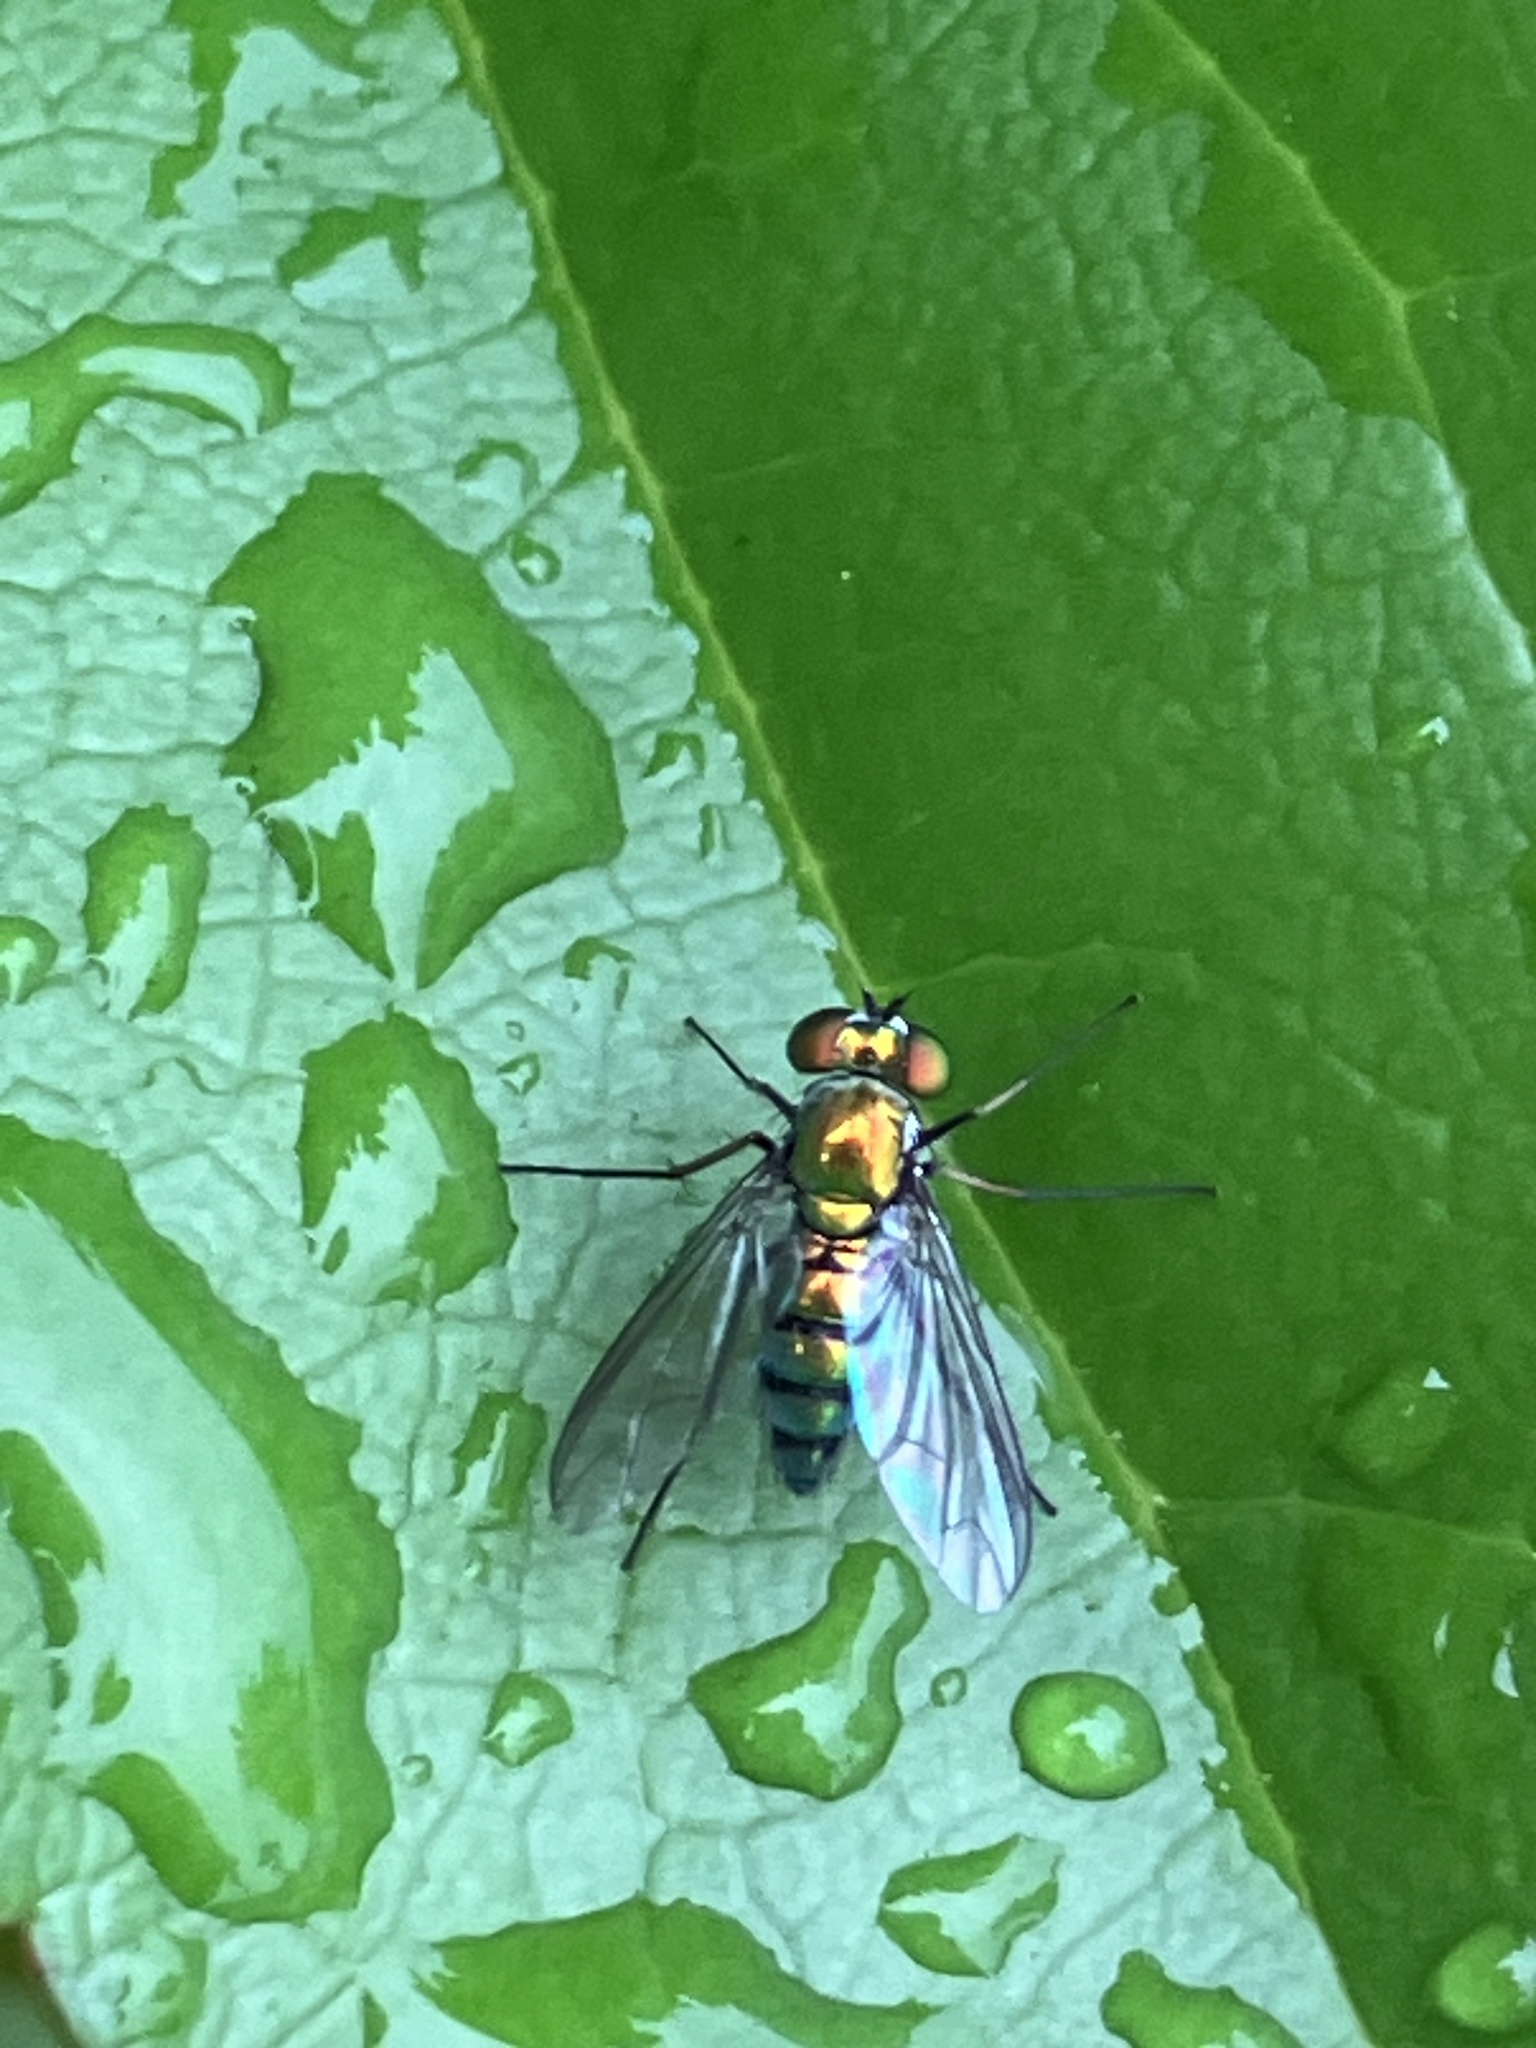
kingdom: Animalia
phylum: Arthropoda
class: Insecta
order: Diptera
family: Dolichopodidae
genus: Condylostylus
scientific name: Condylostylus longicornis
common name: Long-legged fly
